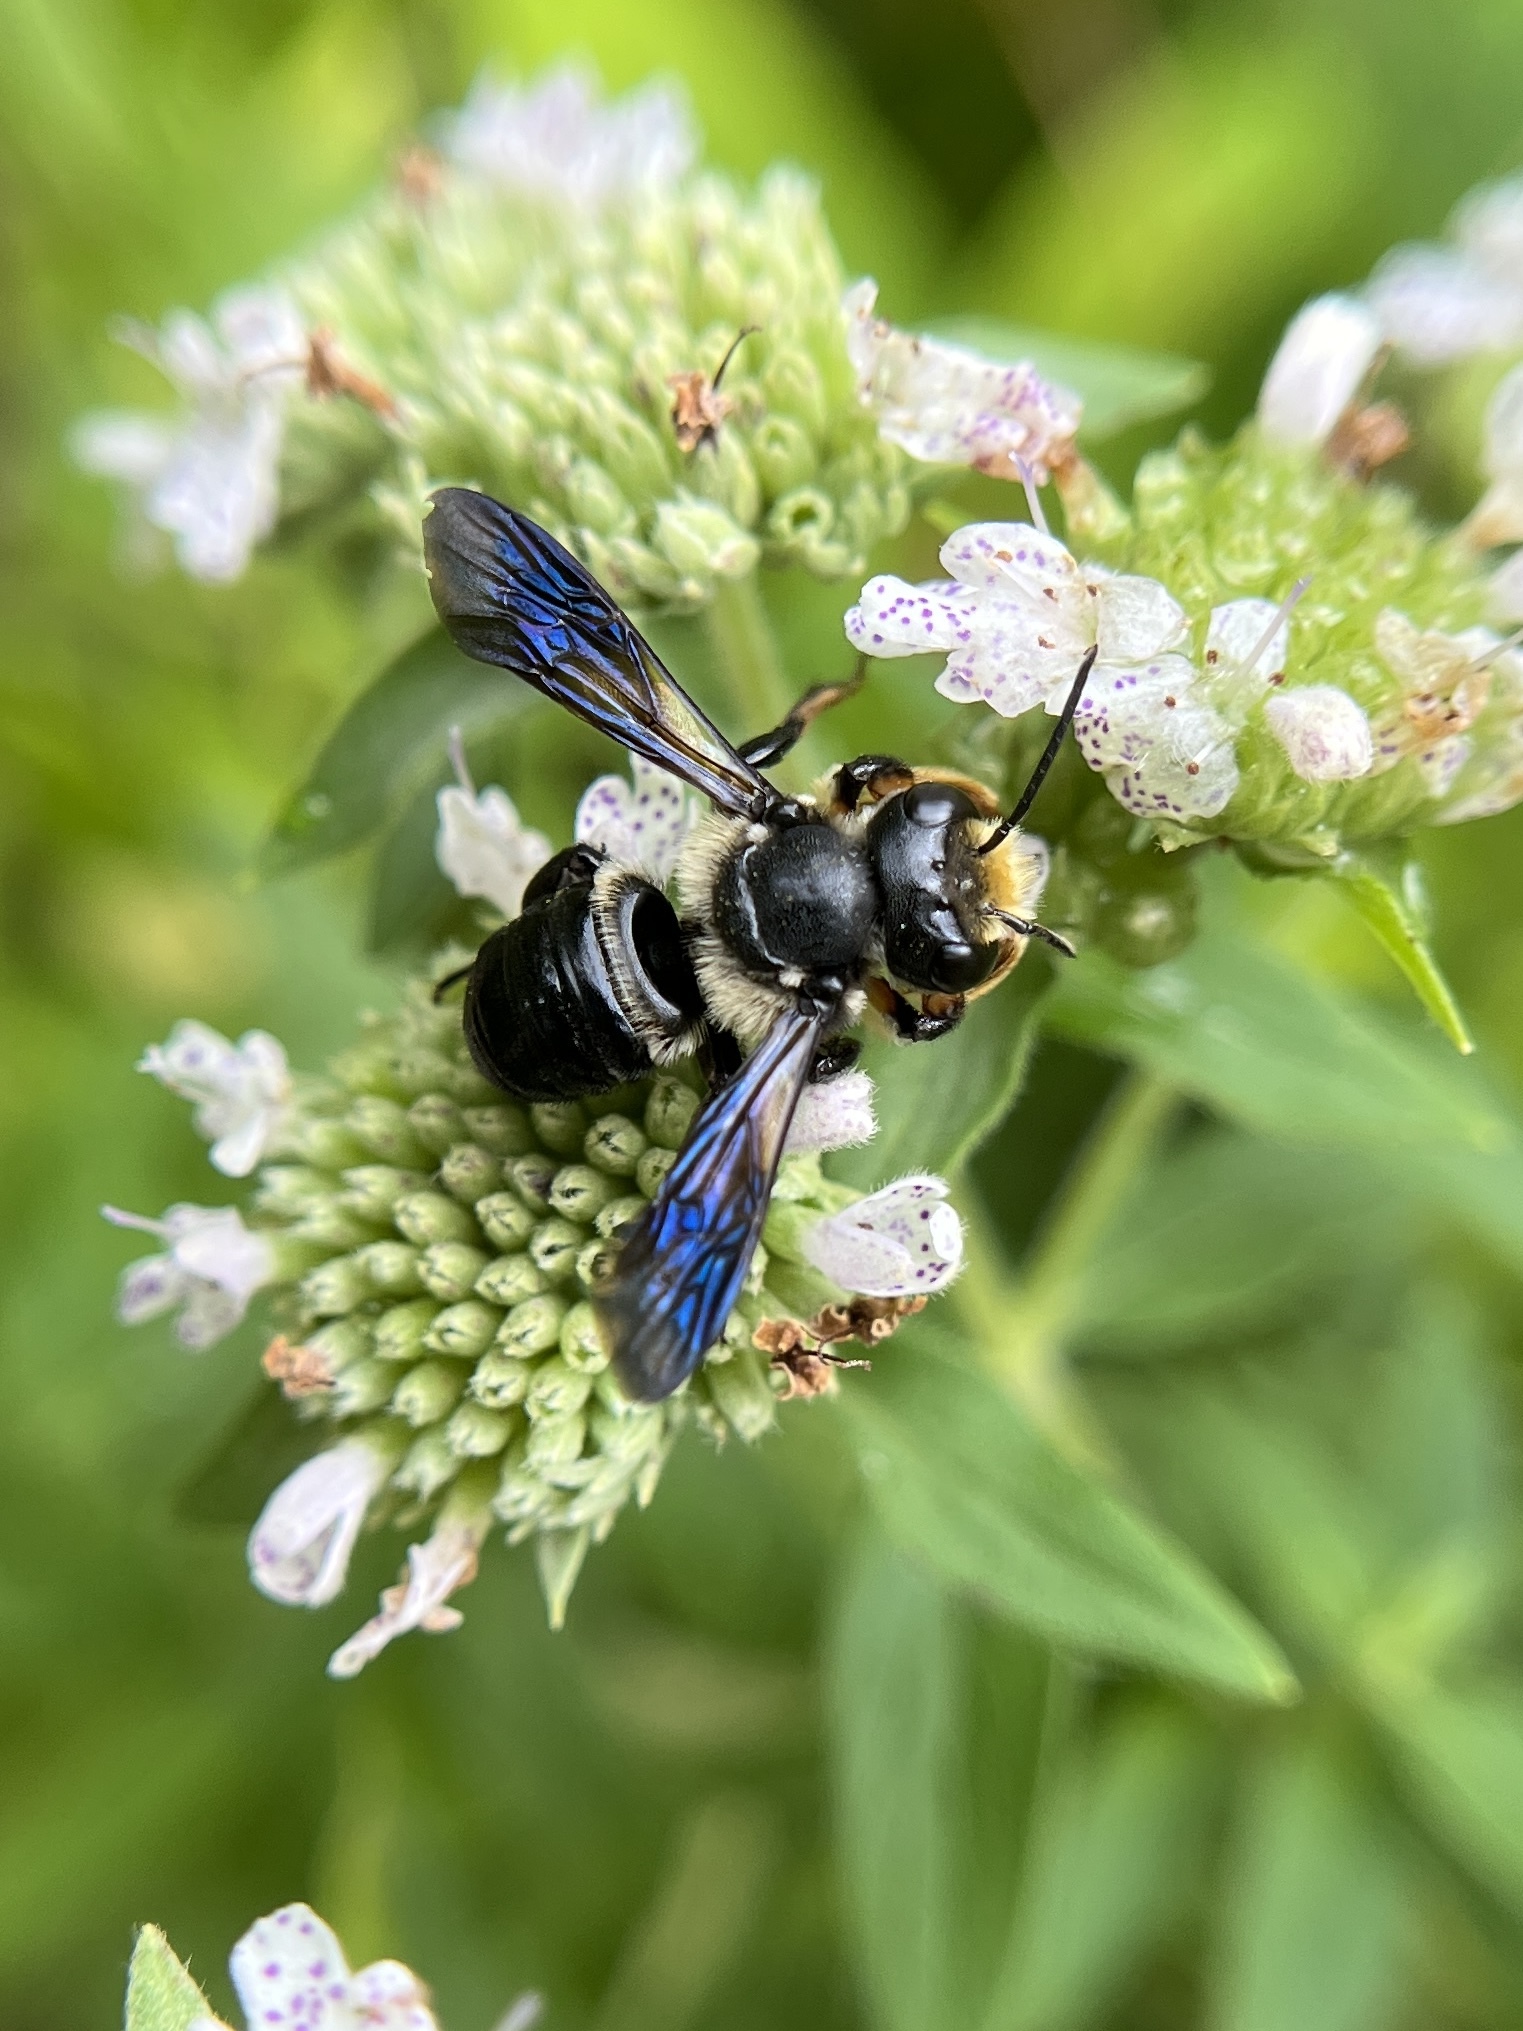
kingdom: Animalia
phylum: Arthropoda
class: Insecta
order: Hymenoptera
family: Megachilidae
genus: Megachile
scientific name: Megachile xylocopoides
